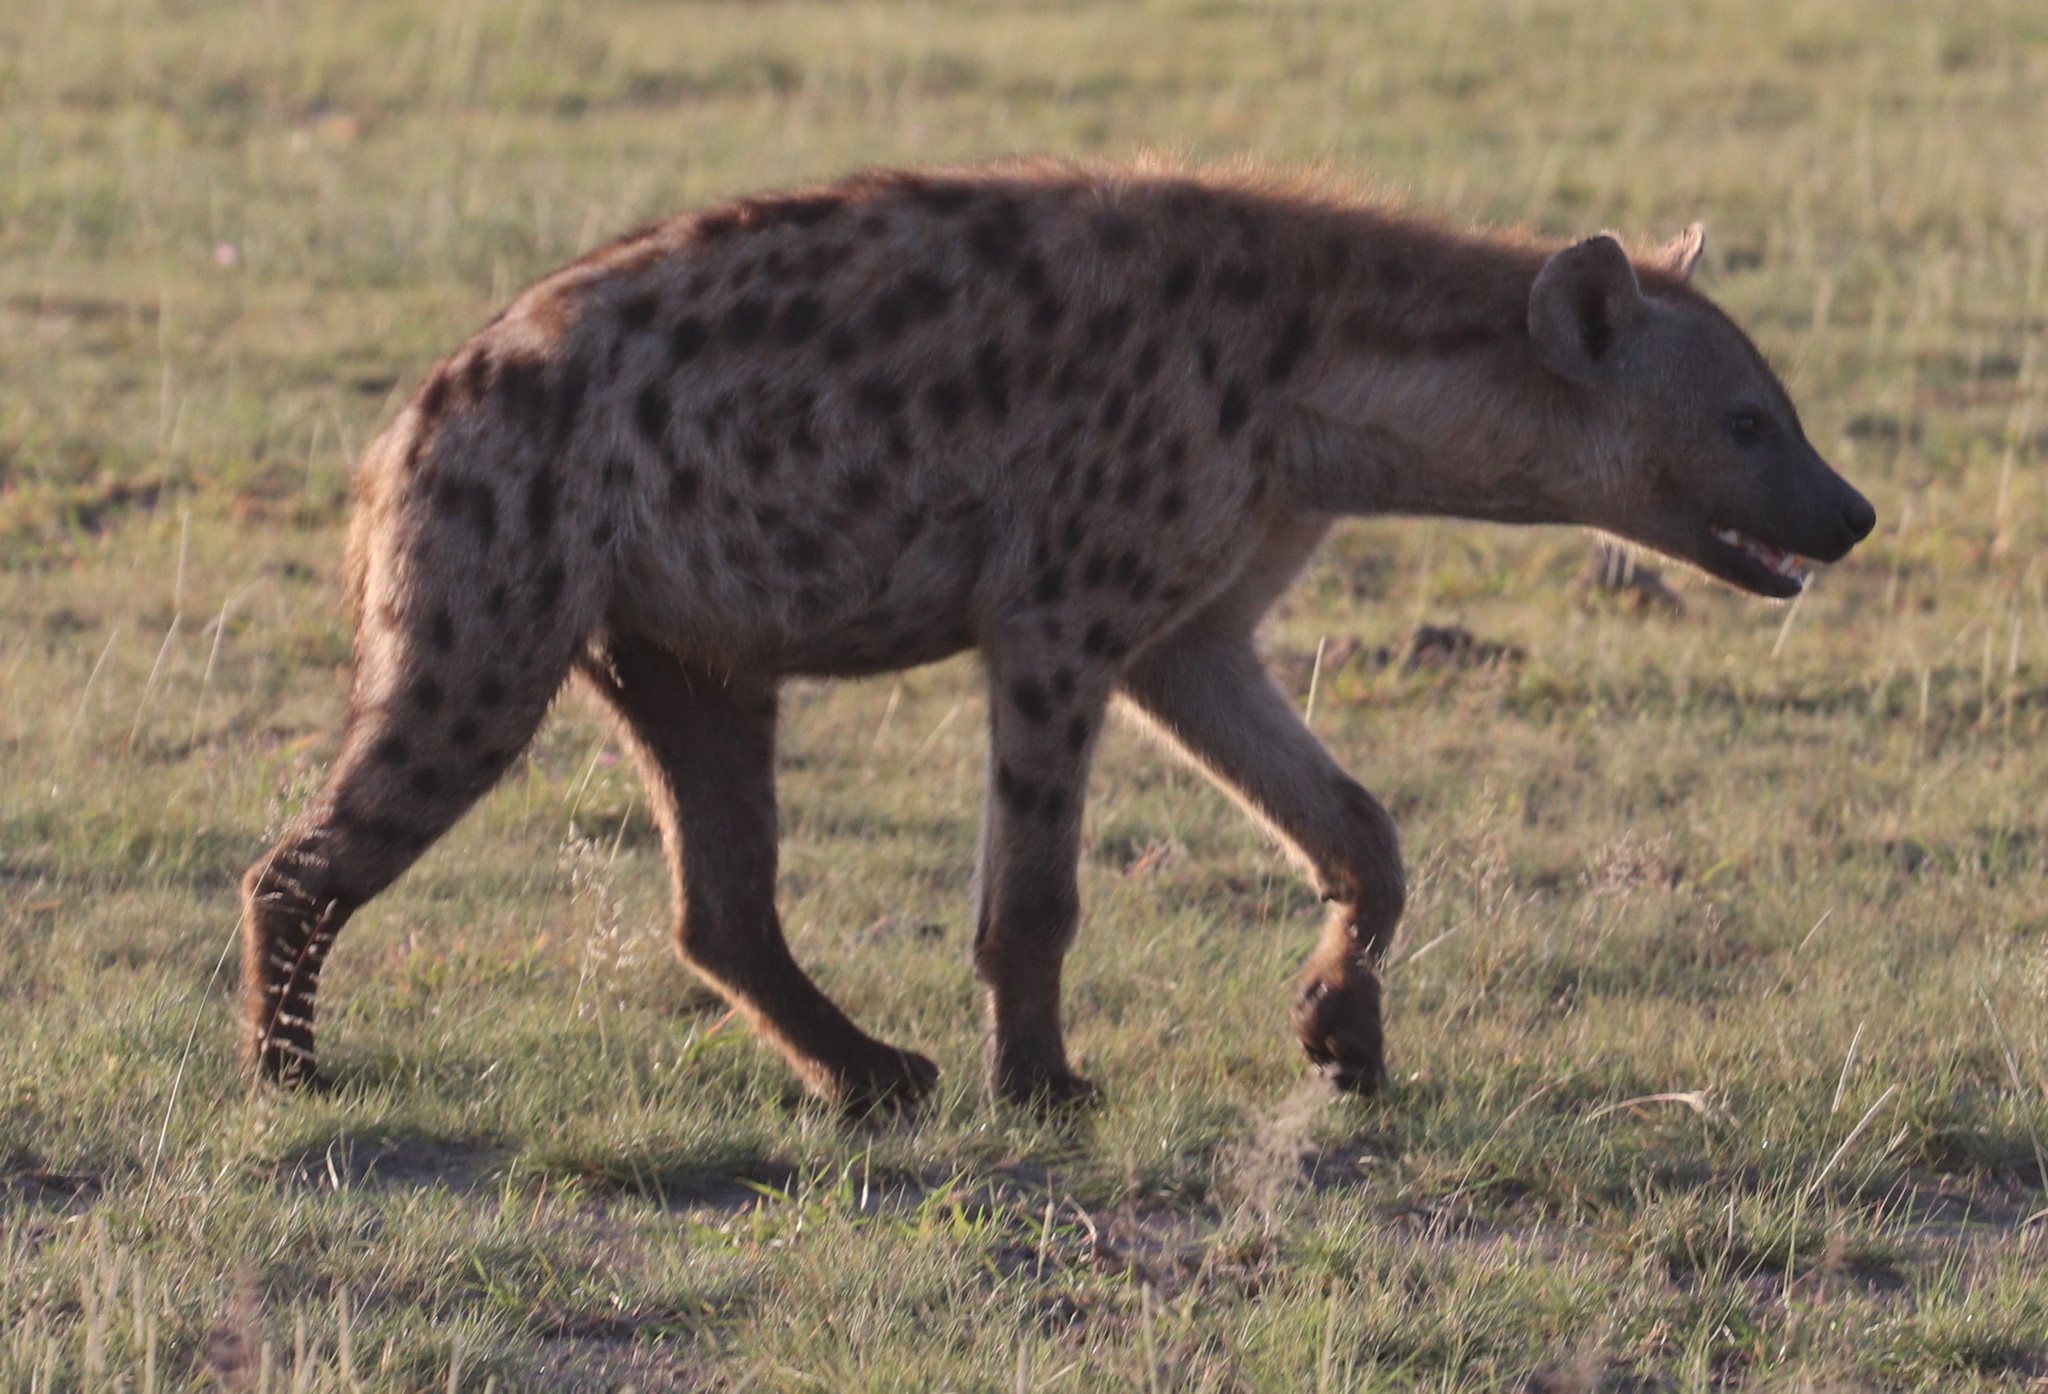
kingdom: Animalia
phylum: Chordata
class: Mammalia
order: Carnivora
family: Hyaenidae
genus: Crocuta
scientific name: Crocuta crocuta
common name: Spotted hyaena
